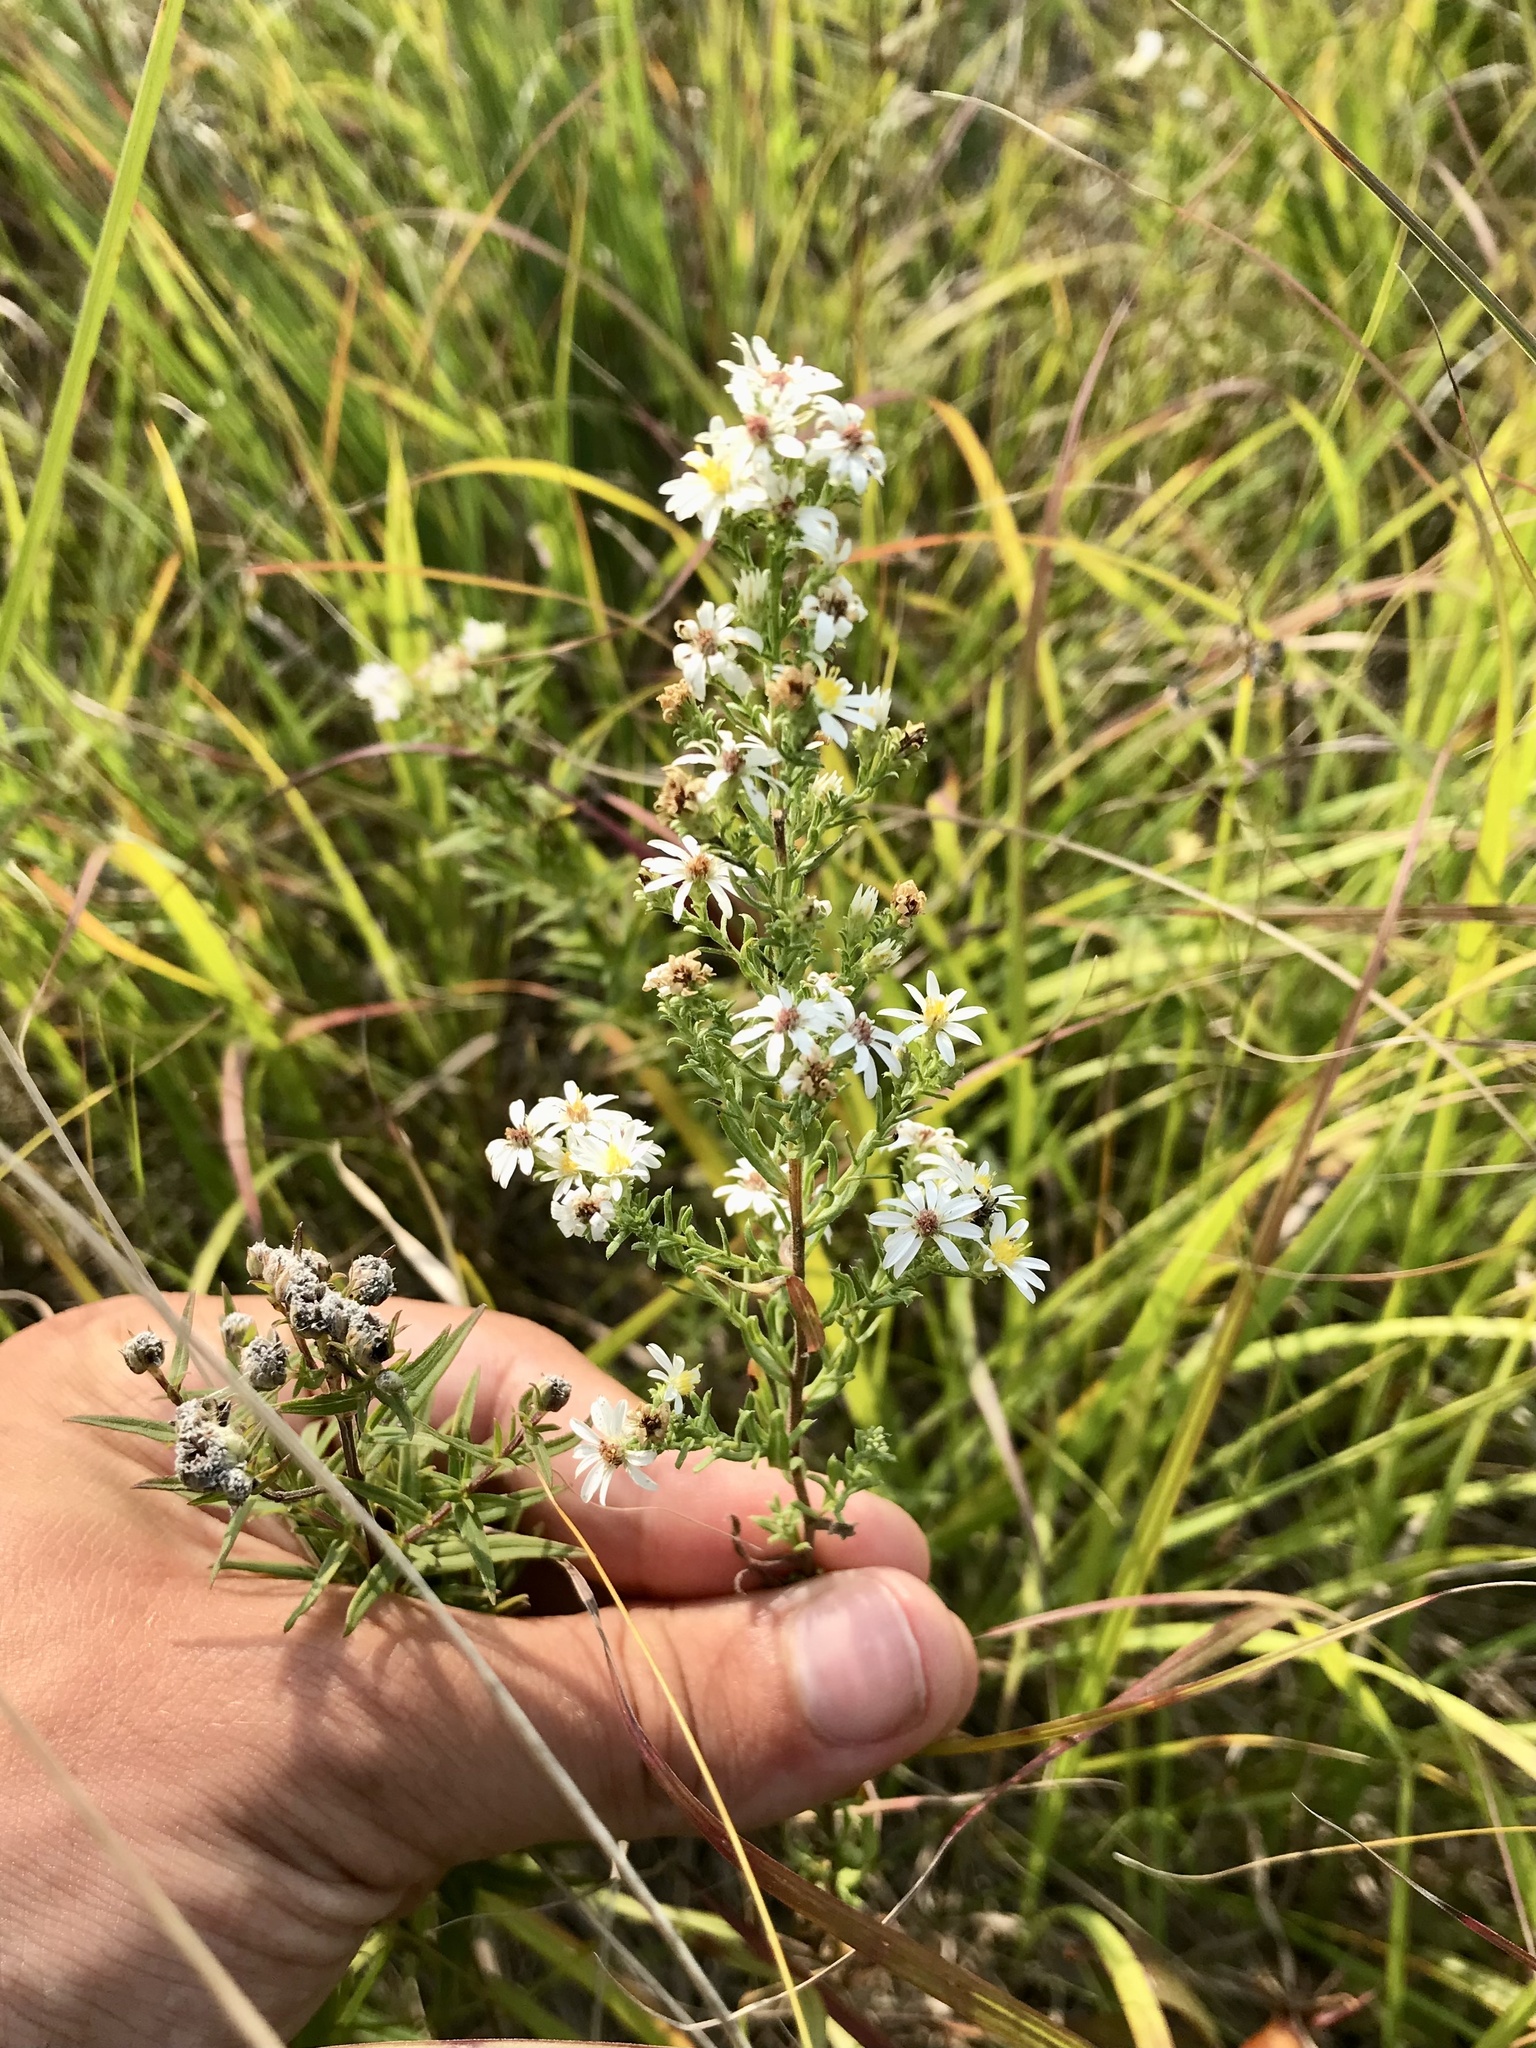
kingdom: Plantae
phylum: Tracheophyta
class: Magnoliopsida
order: Asterales
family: Asteraceae
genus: Symphyotrichum
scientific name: Symphyotrichum ericoides
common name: Heath aster
